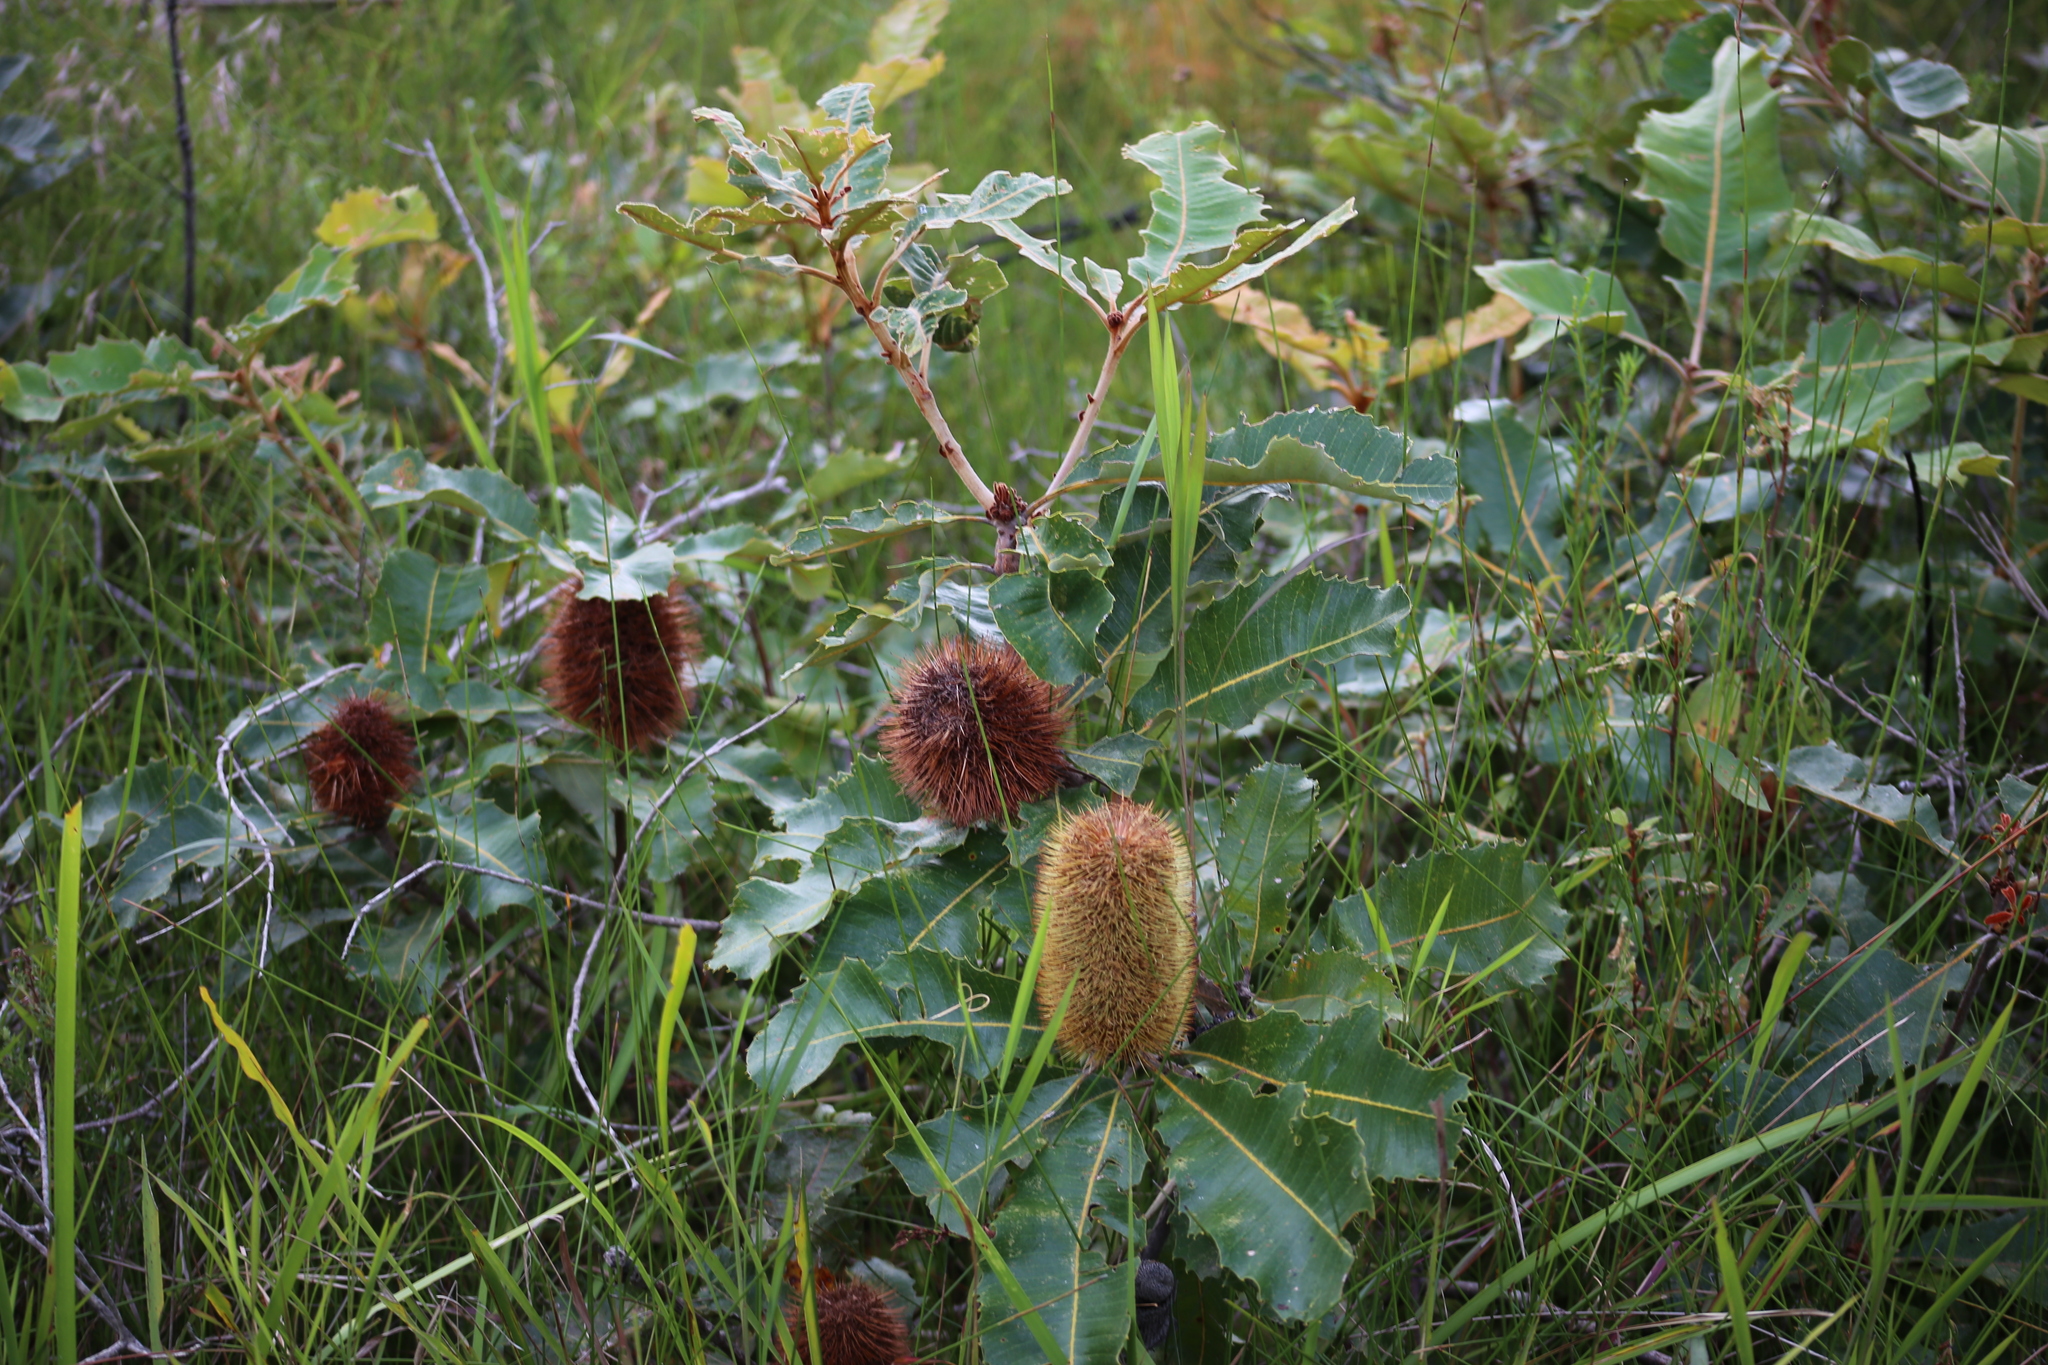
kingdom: Plantae
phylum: Tracheophyta
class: Magnoliopsida
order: Proteales
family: Proteaceae
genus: Banksia
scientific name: Banksia robur
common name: Broadleaf banksia
